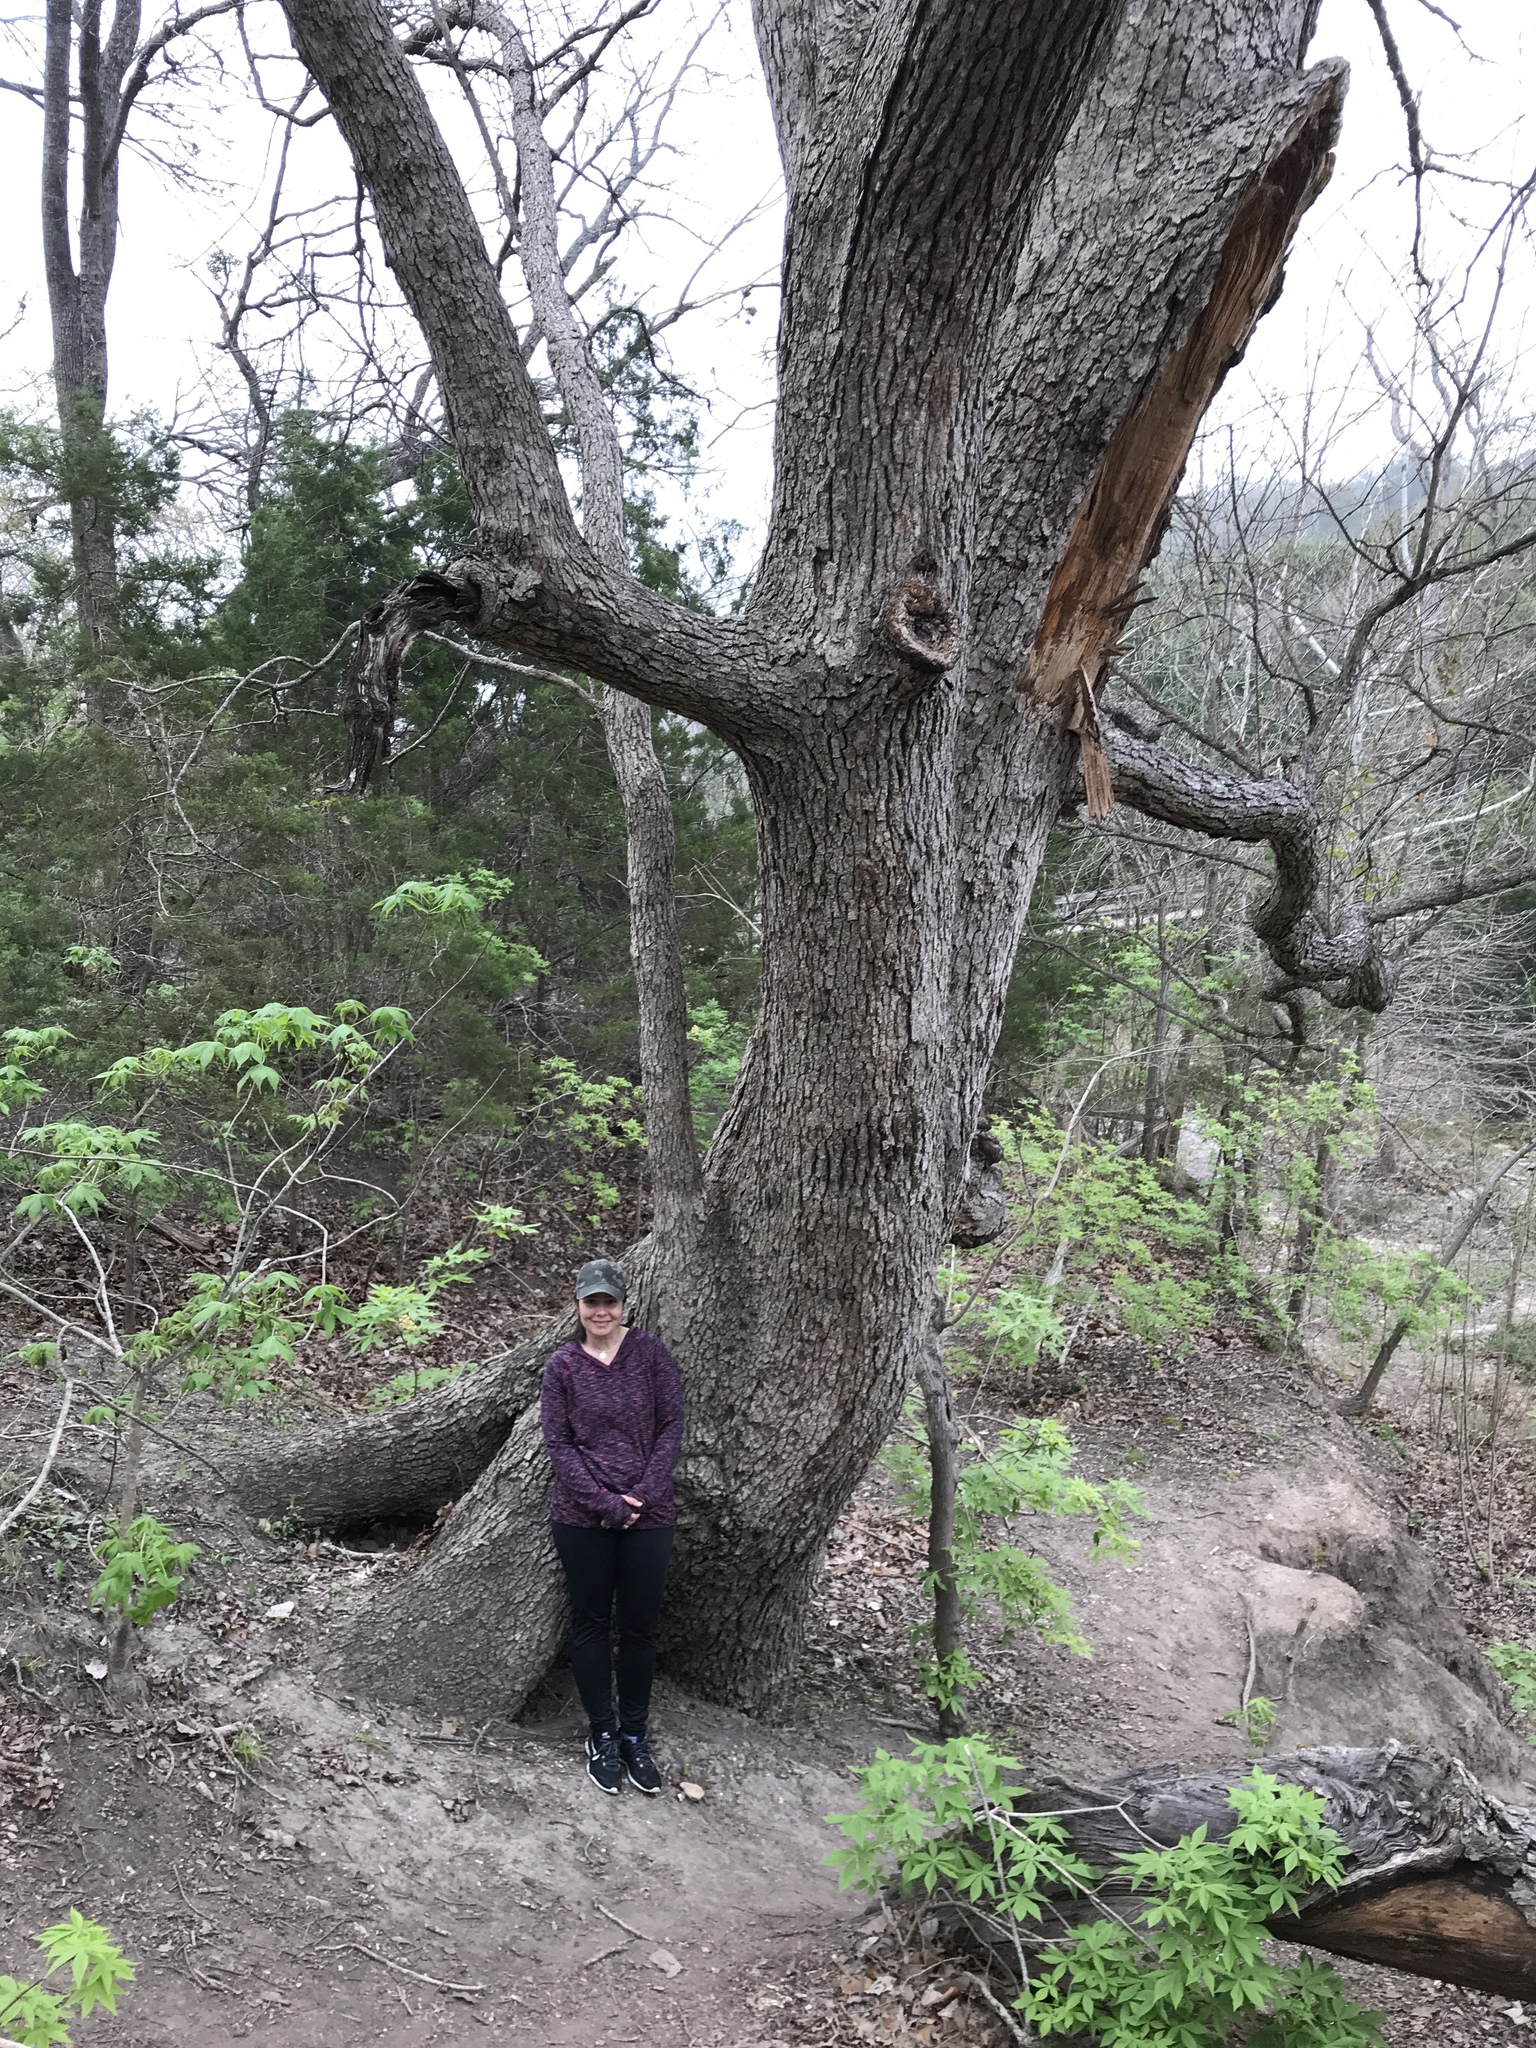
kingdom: Plantae
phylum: Tracheophyta
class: Magnoliopsida
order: Fagales
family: Fagaceae
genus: Quercus
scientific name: Quercus muehlenbergii
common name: Chinkapin oak
